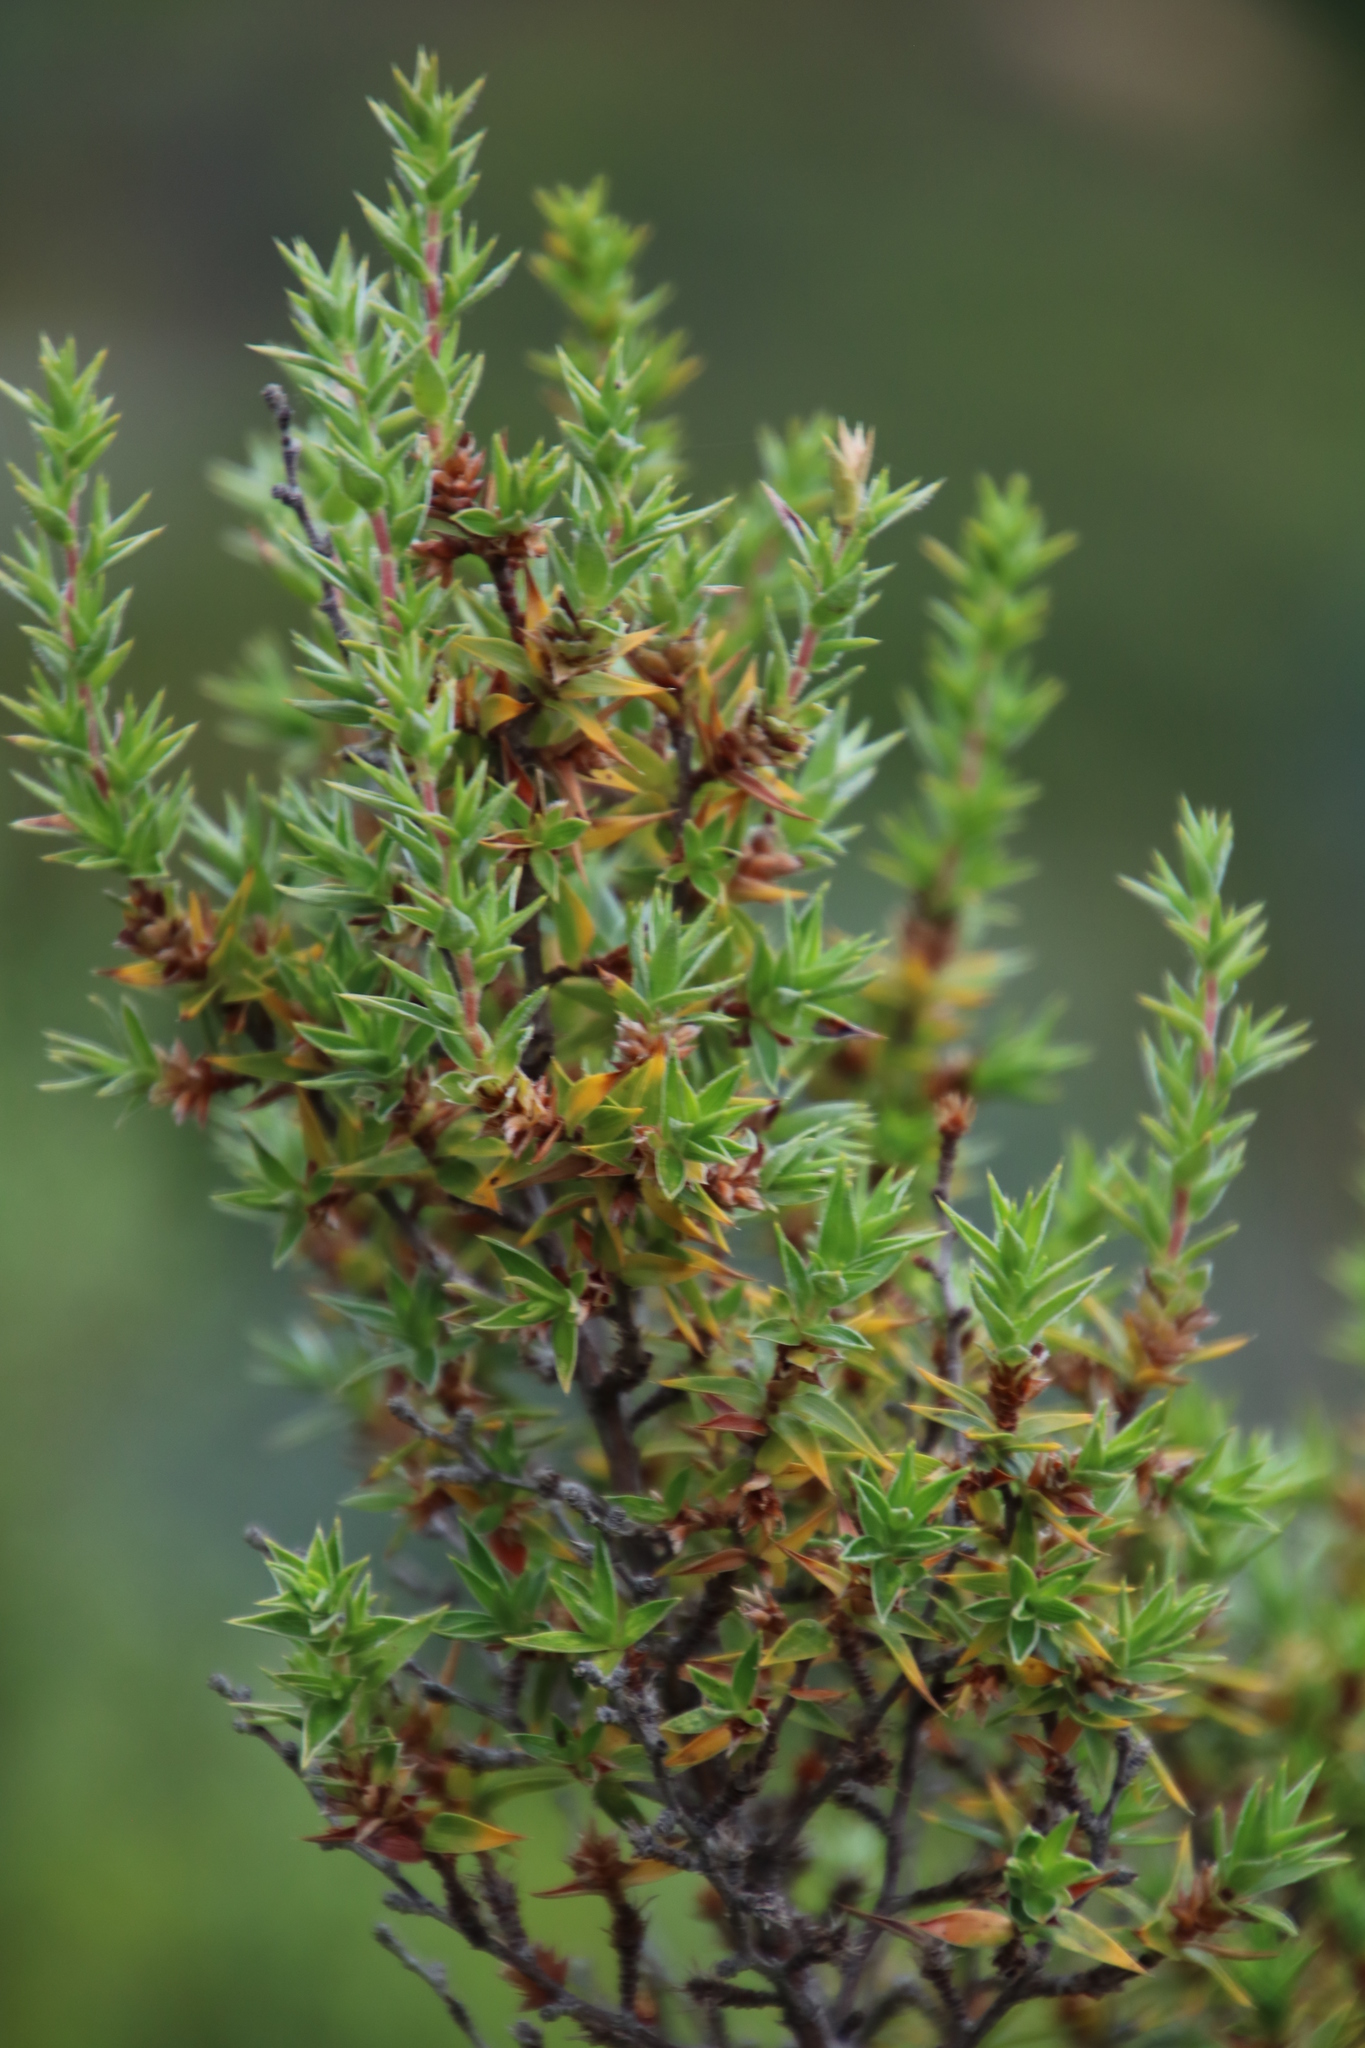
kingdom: Plantae
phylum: Tracheophyta
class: Magnoliopsida
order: Rosales
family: Rosaceae
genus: Cliffortia
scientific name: Cliffortia ruscifolia
